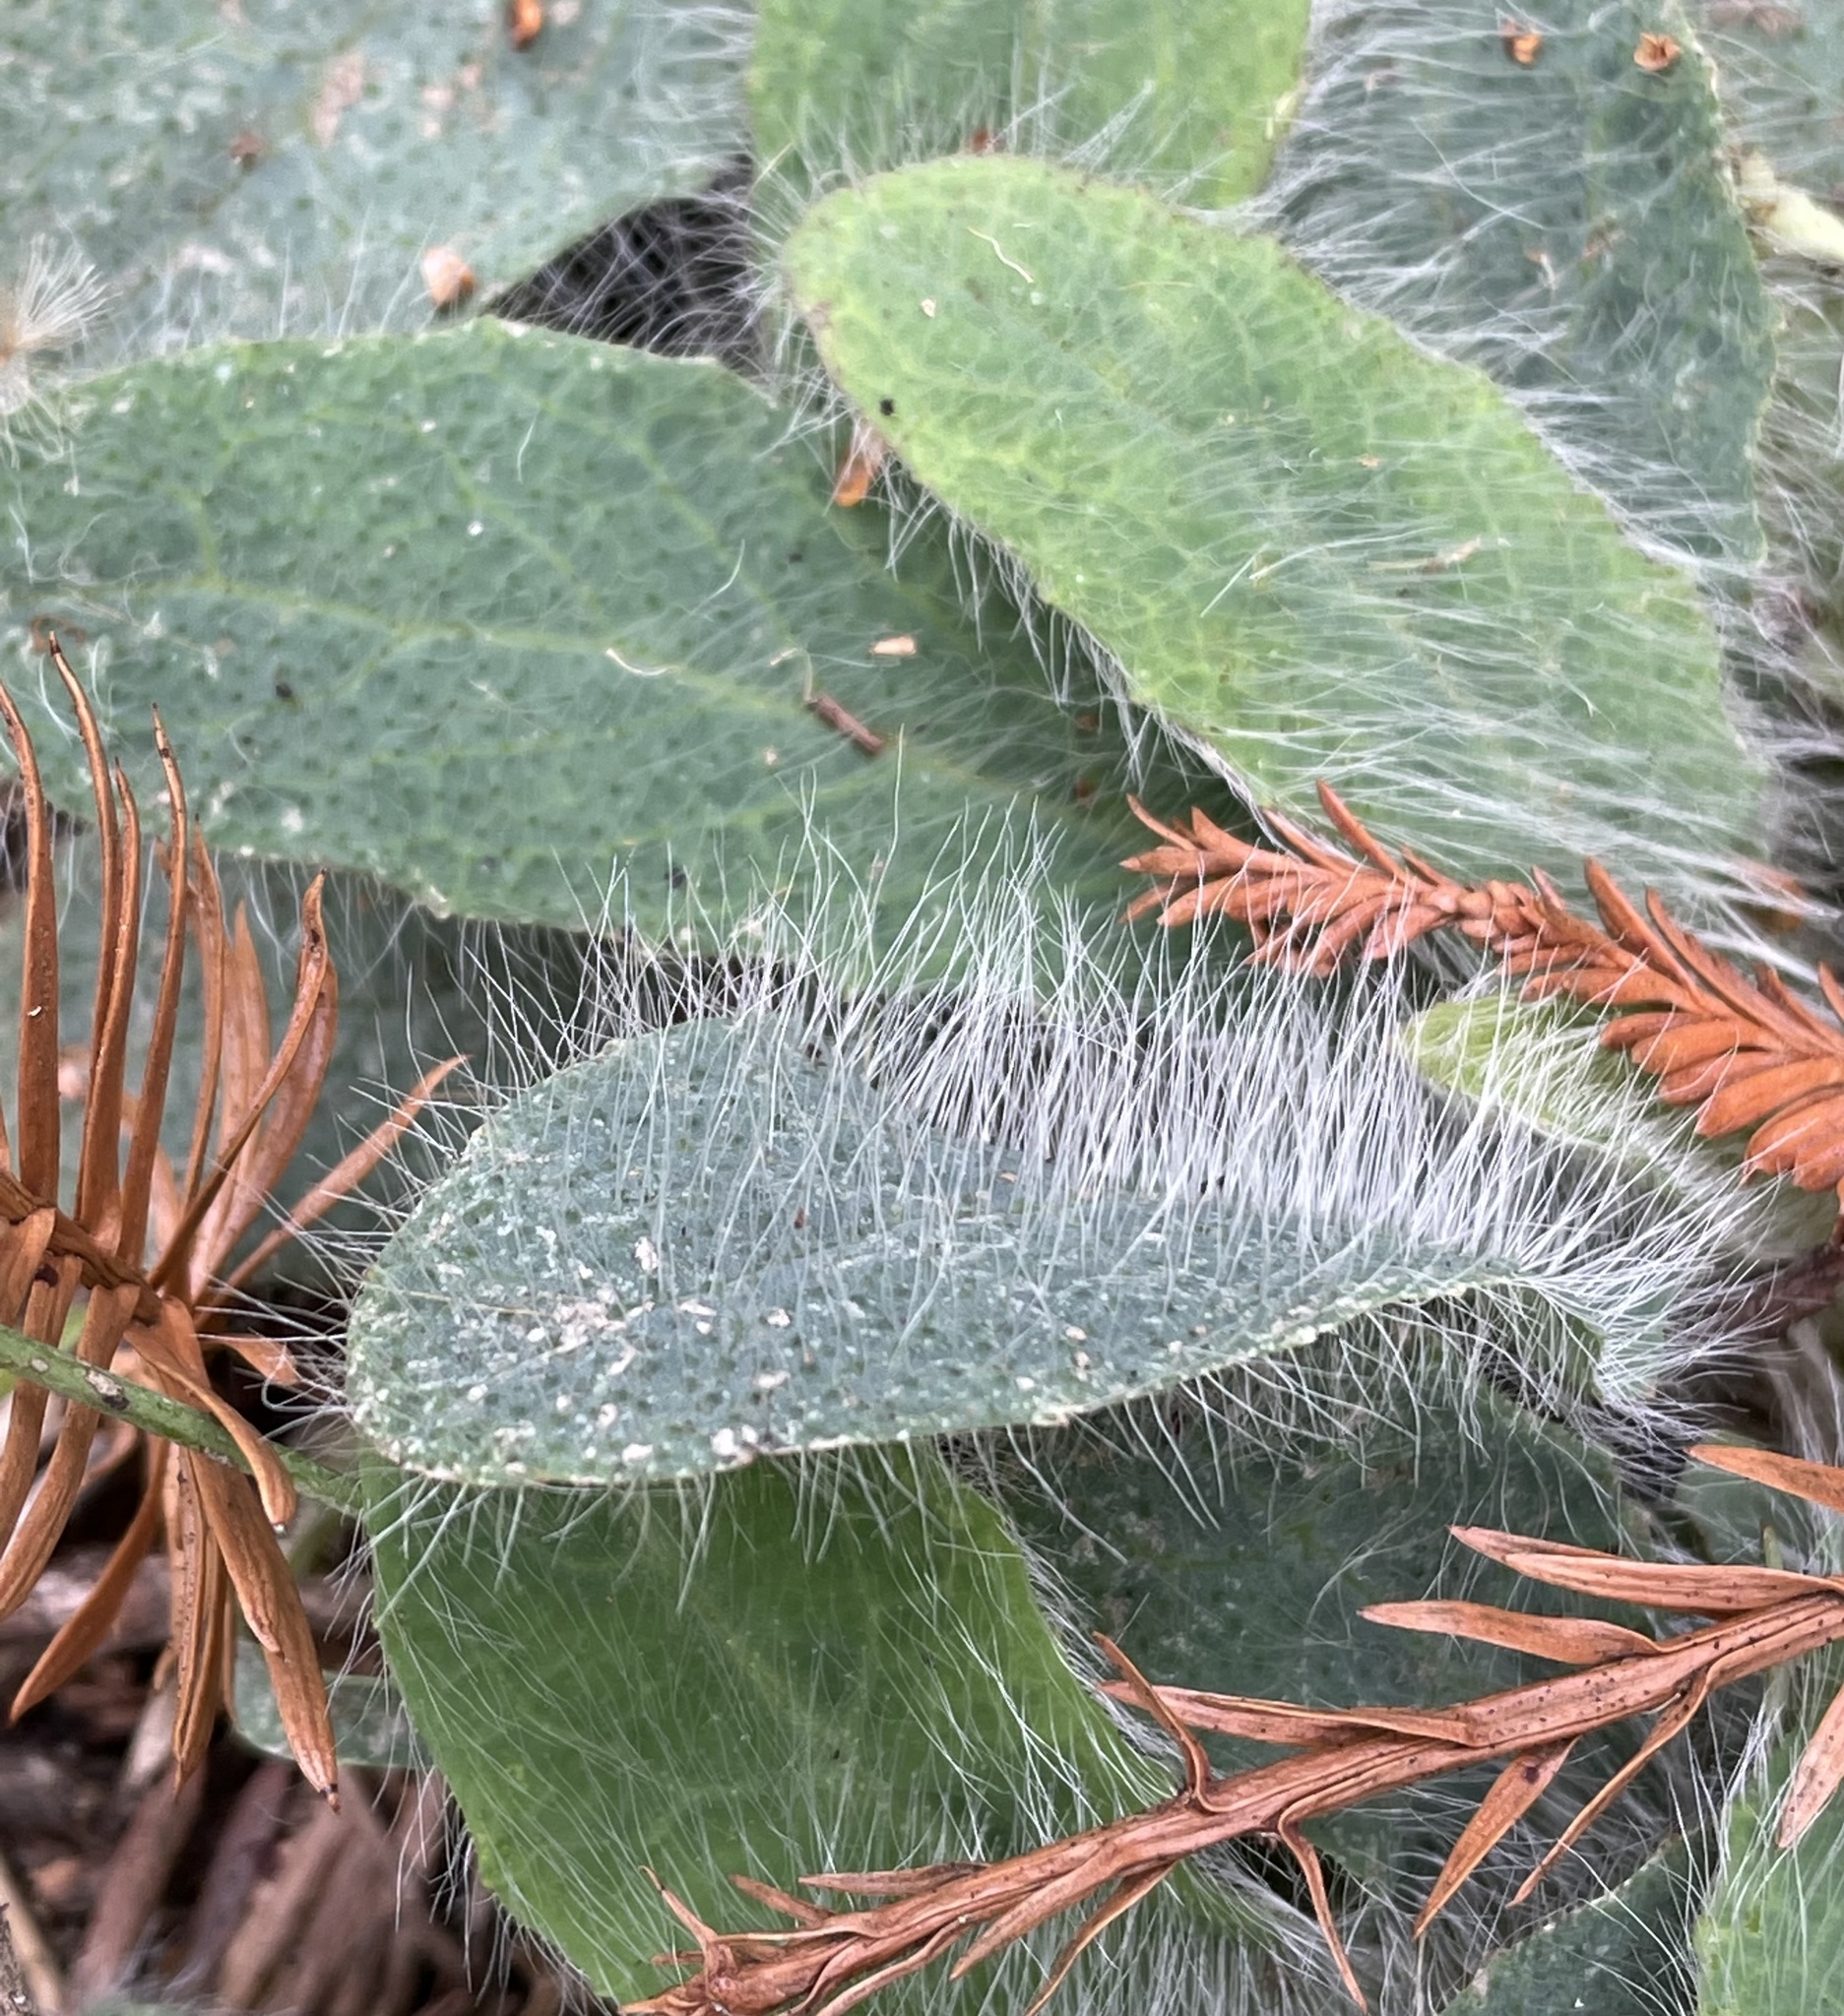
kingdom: Plantae
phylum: Tracheophyta
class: Magnoliopsida
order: Asterales
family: Asteraceae
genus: Hieracium
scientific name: Hieracium albiflorum
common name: White hawkweed
